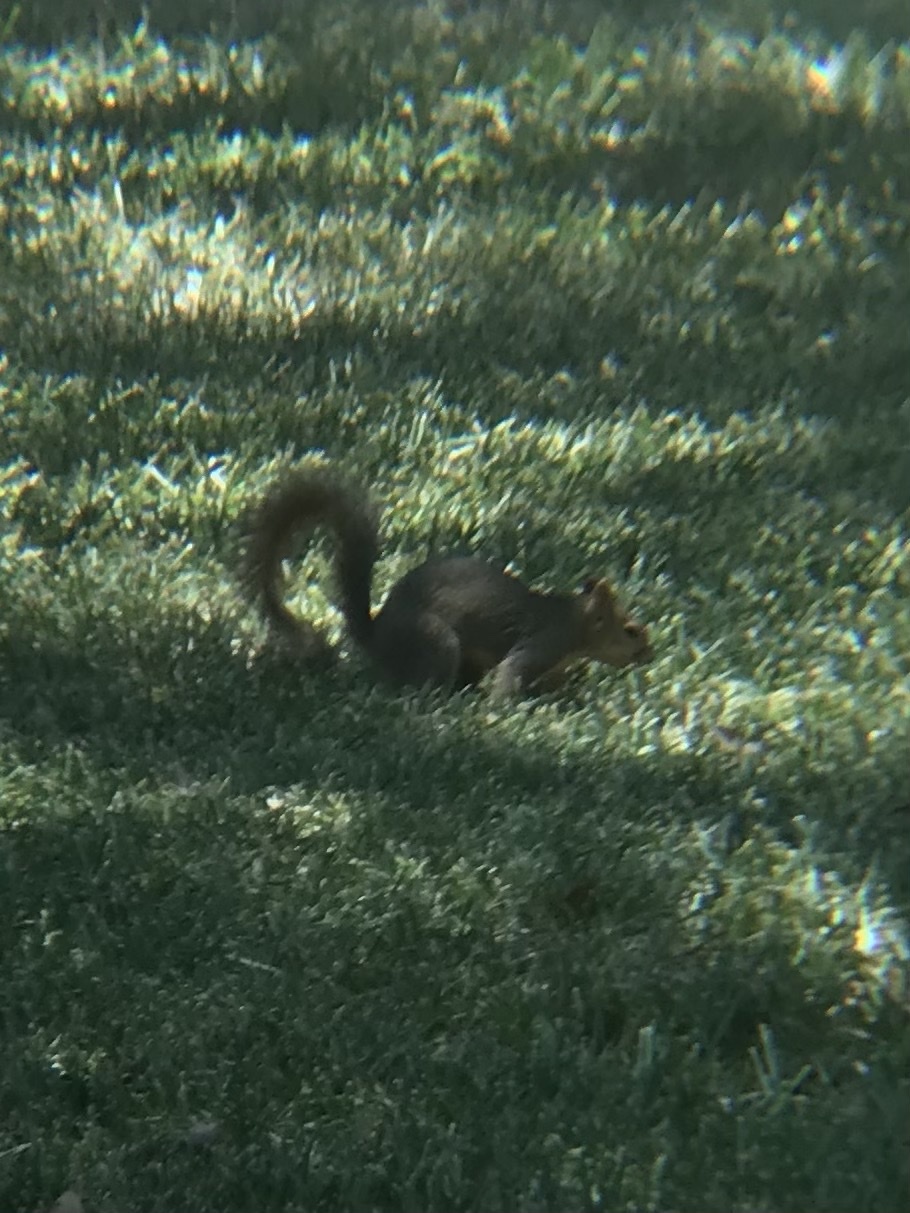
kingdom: Animalia
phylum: Chordata
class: Mammalia
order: Rodentia
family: Sciuridae
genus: Sciurus
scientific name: Sciurus niger
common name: Fox squirrel
